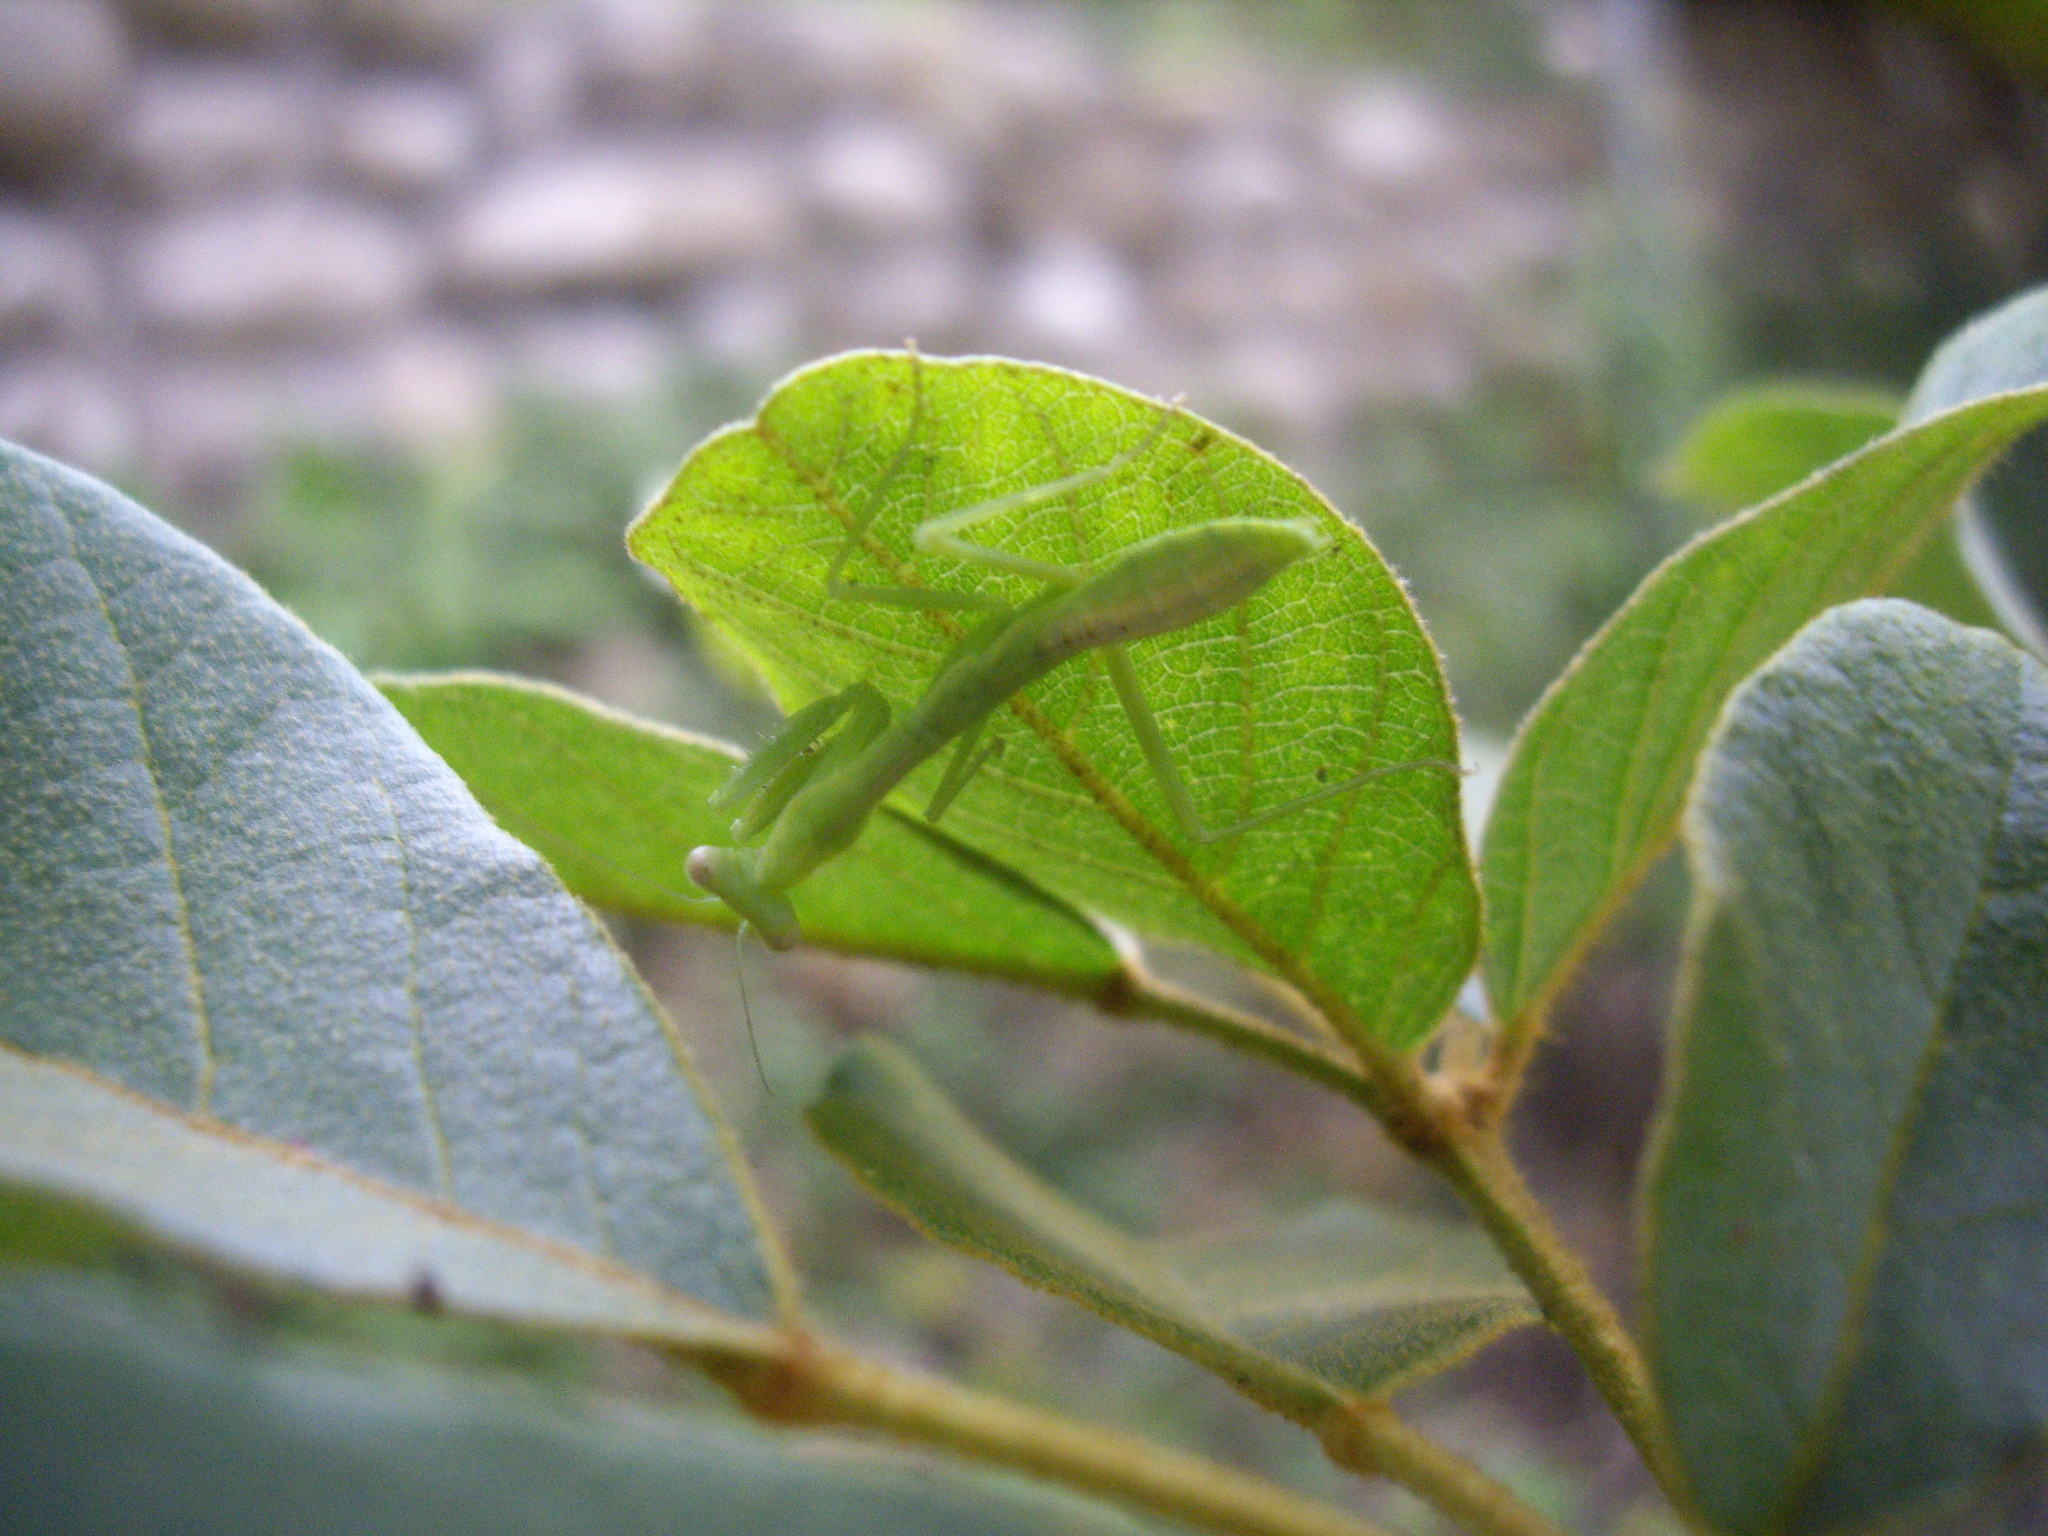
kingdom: Animalia
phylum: Arthropoda
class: Insecta
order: Mantodea
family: Mantidae
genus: Titanodula
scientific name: Titanodula formosana
